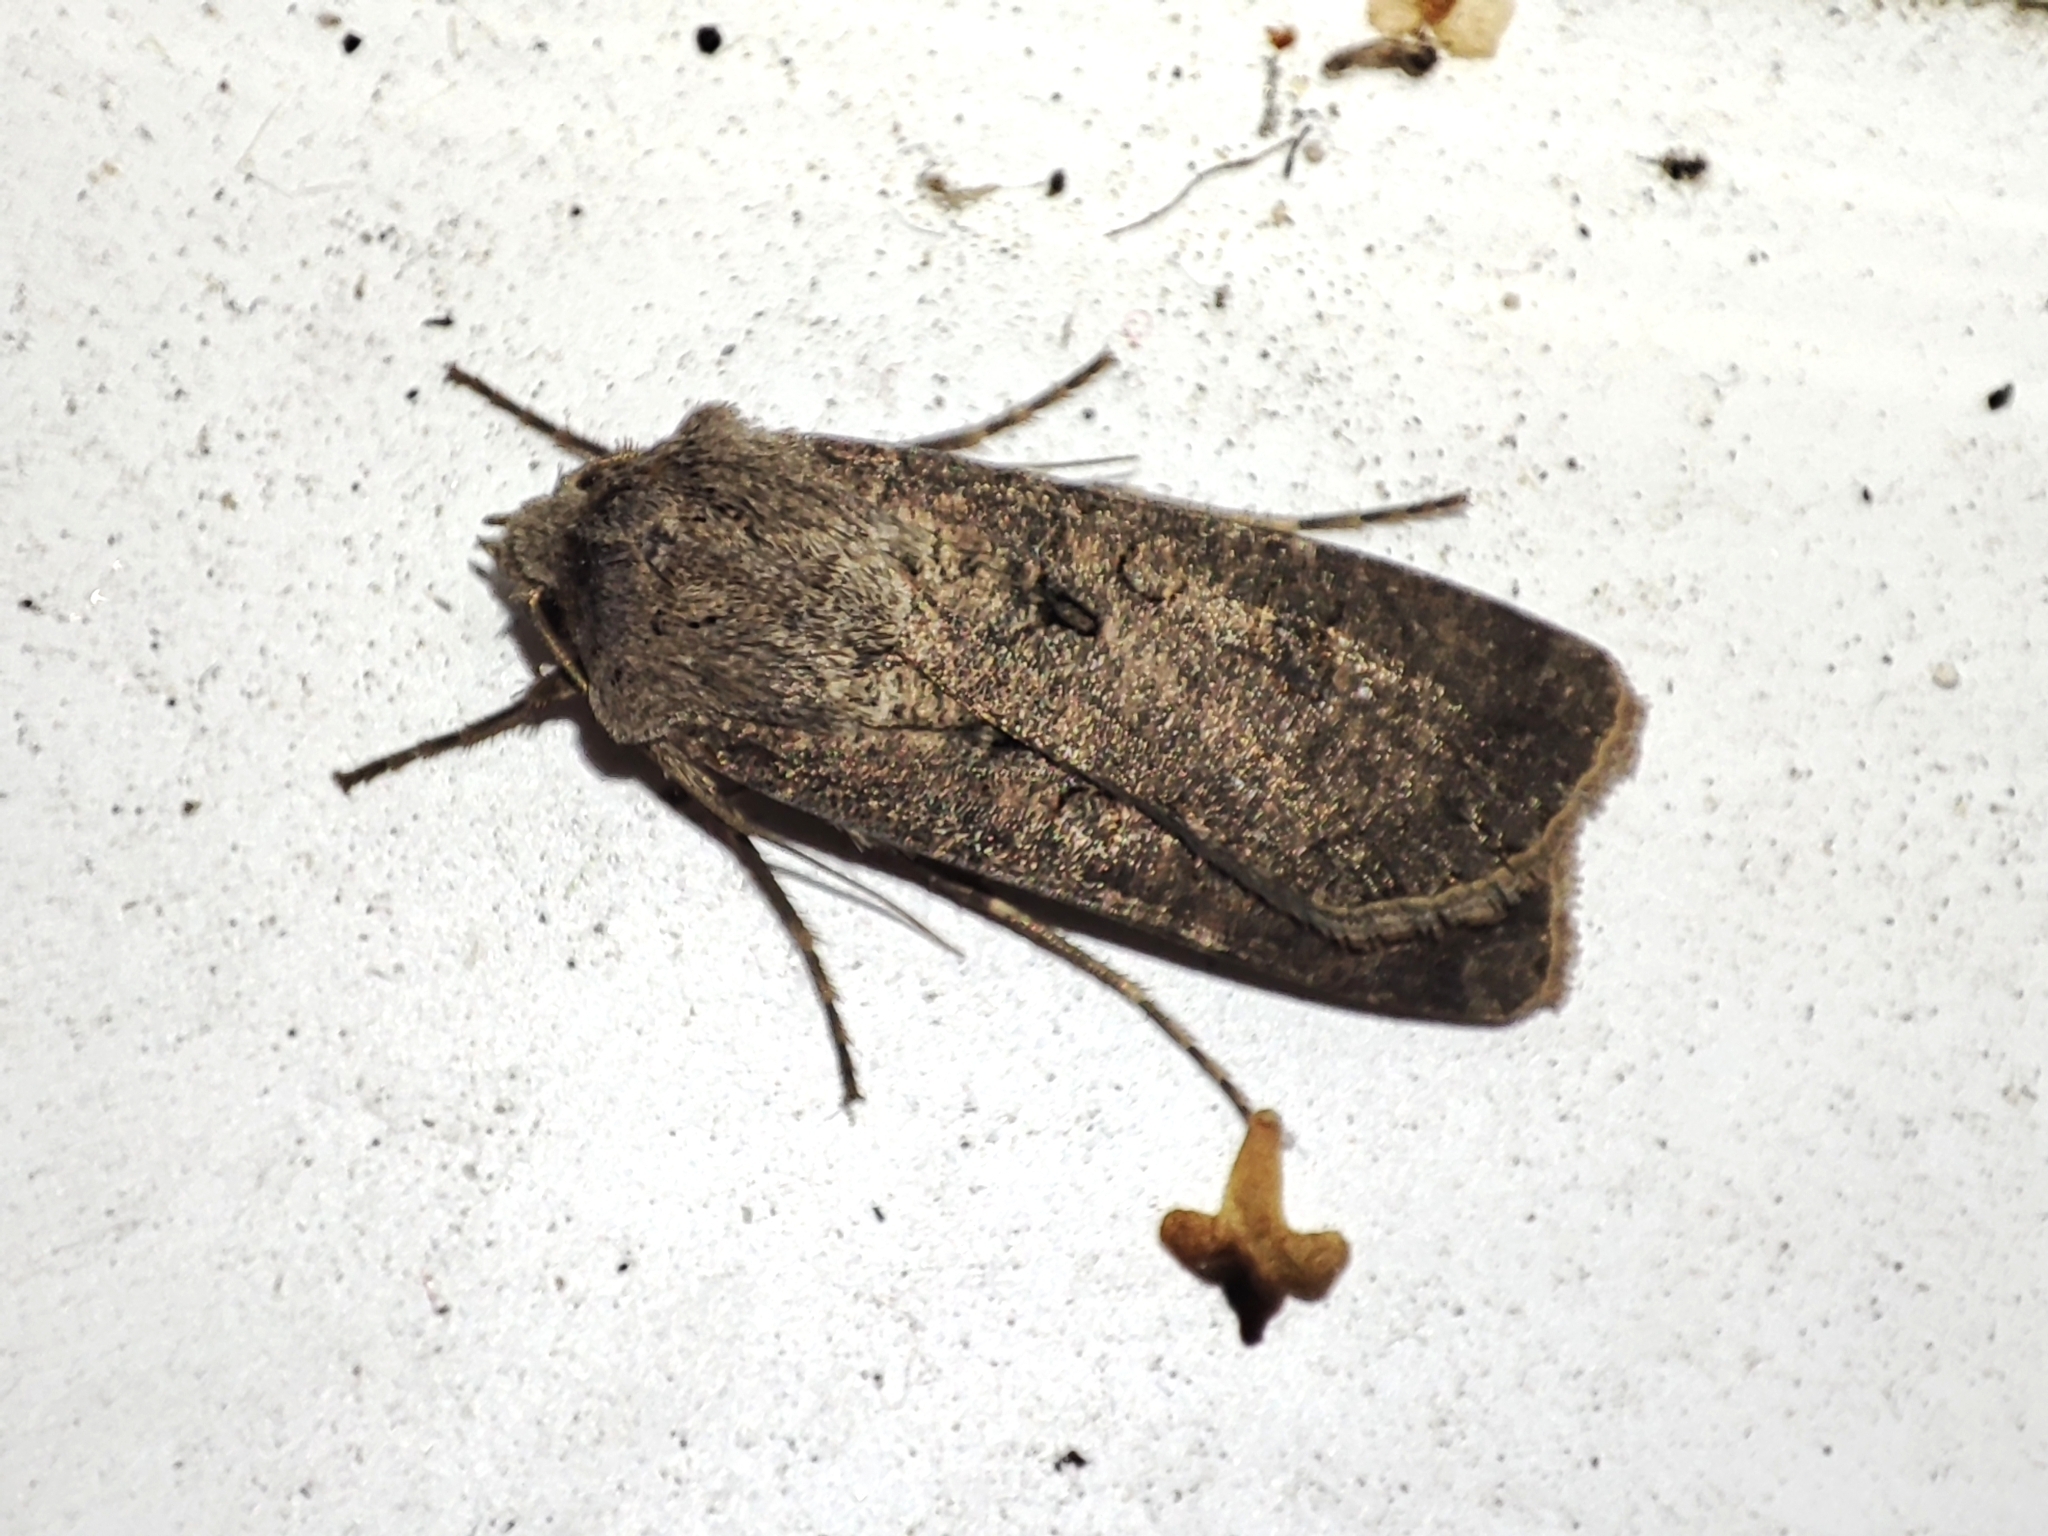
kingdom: Animalia
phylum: Arthropoda
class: Insecta
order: Lepidoptera
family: Noctuidae
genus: Agrotis
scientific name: Agrotis segetum
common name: Turnip moth
